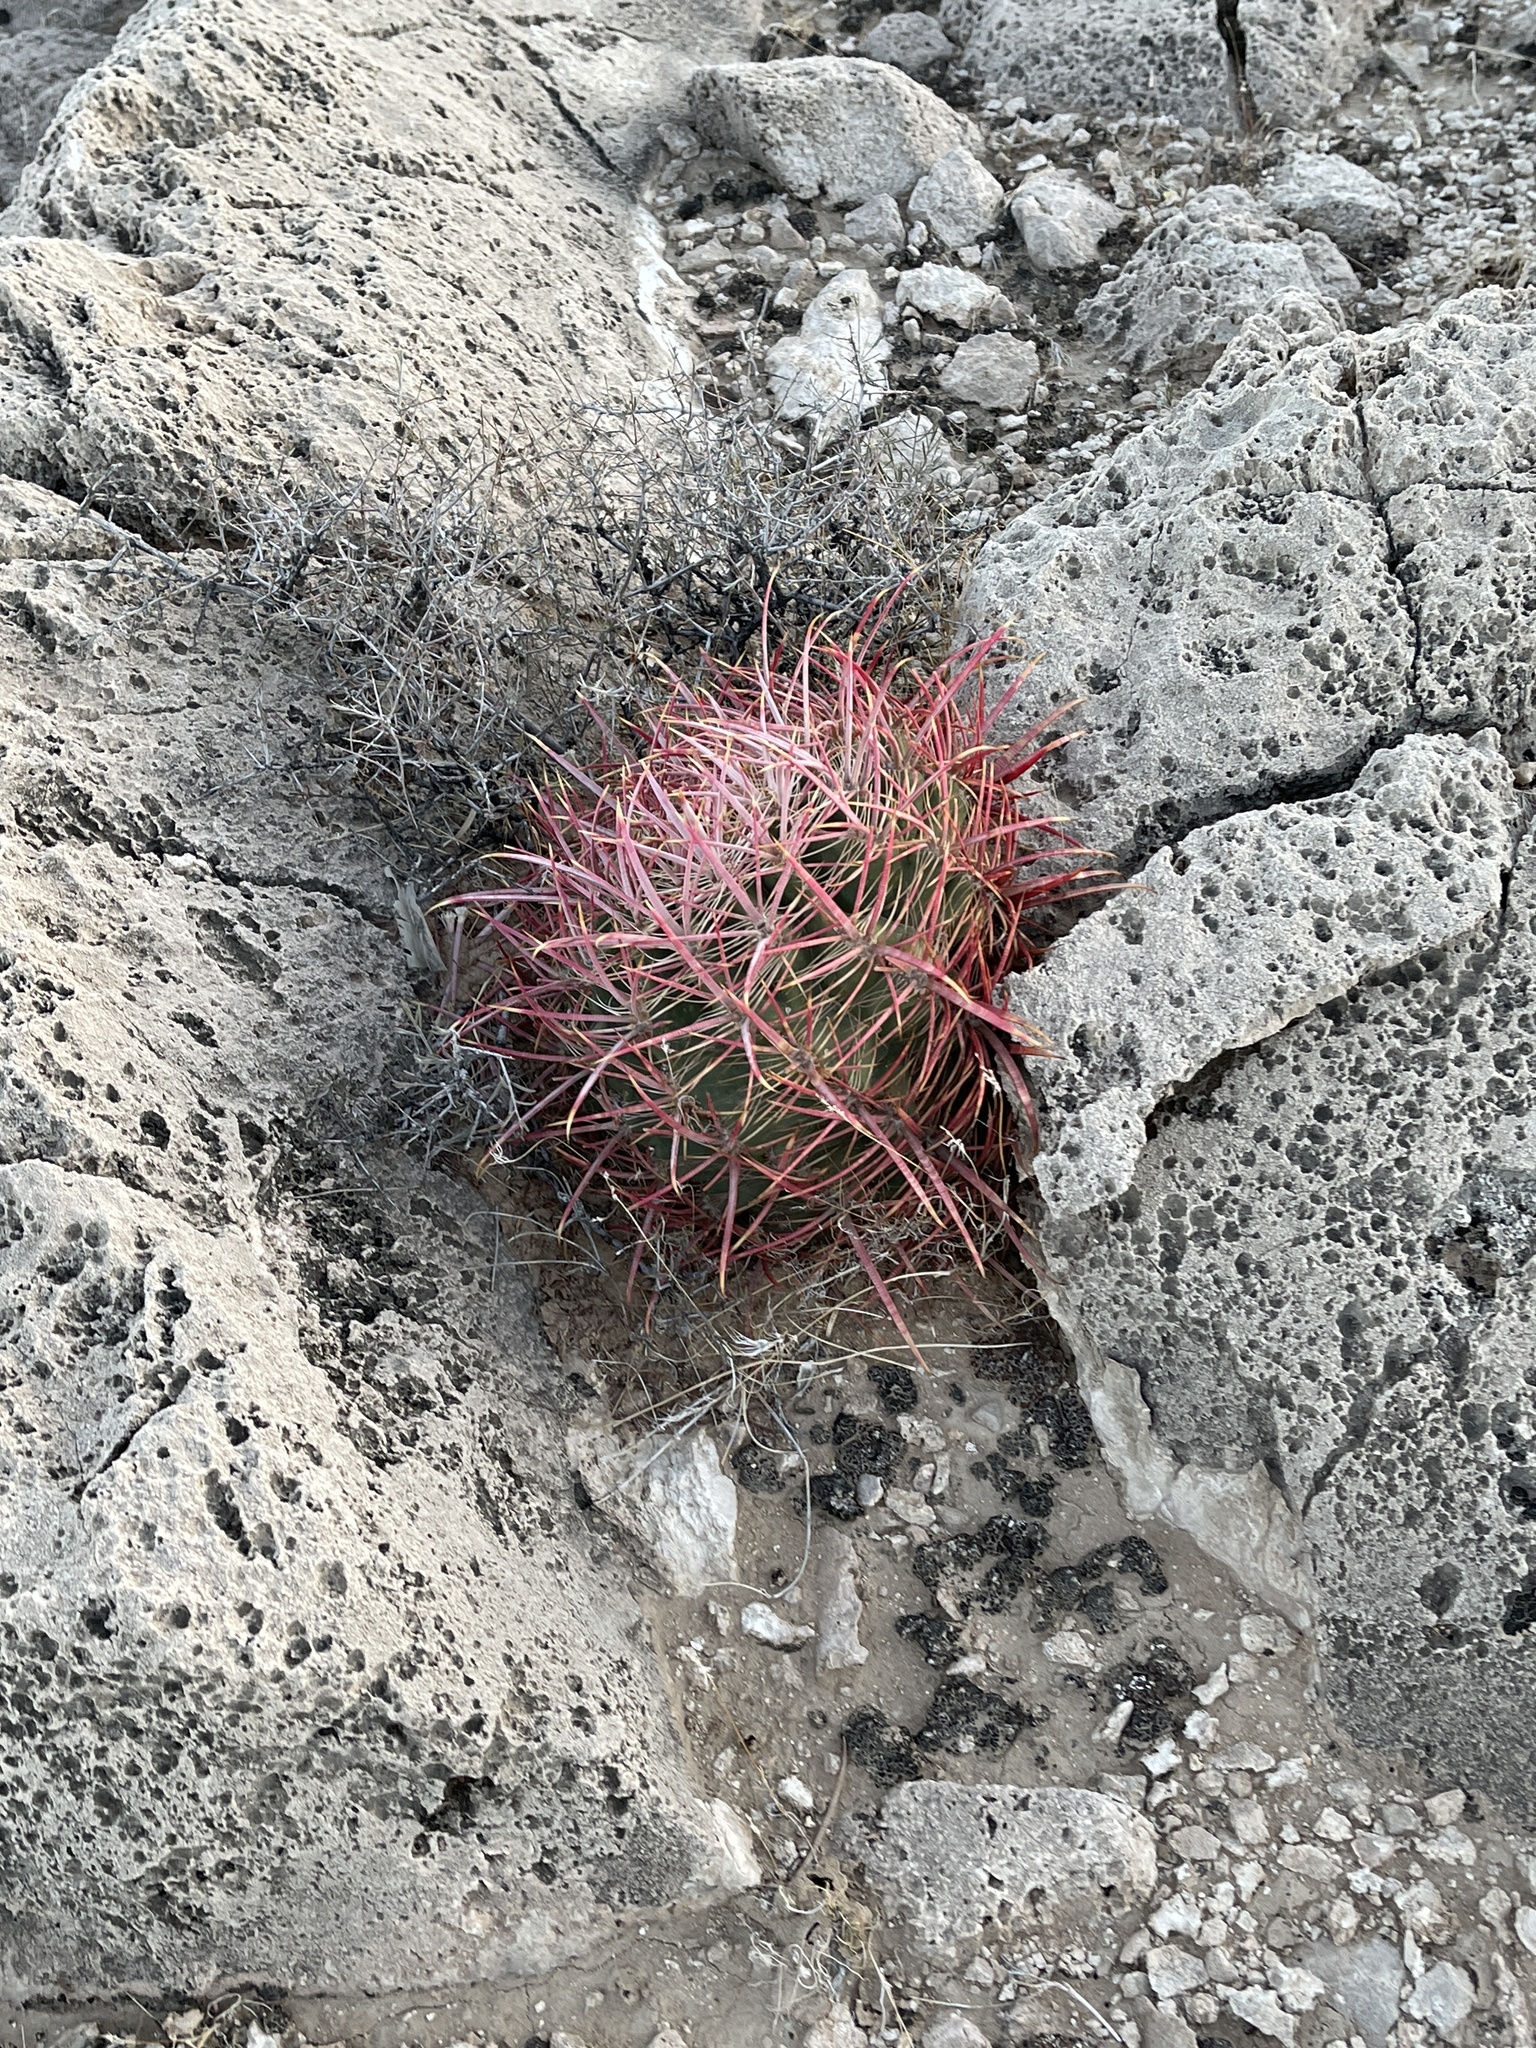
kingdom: Plantae
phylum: Tracheophyta
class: Magnoliopsida
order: Caryophyllales
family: Cactaceae
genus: Ferocactus
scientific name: Ferocactus cylindraceus
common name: California barrel cactus
